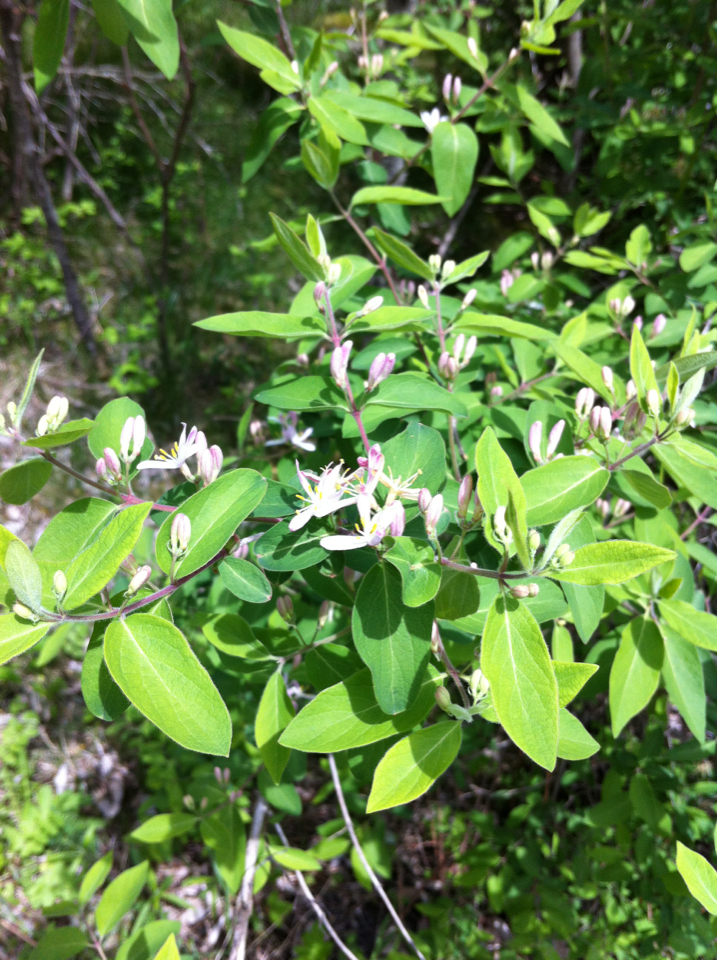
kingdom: Plantae
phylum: Tracheophyta
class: Magnoliopsida
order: Dipsacales
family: Caprifoliaceae
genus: Lonicera
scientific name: Lonicera morrowii
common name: Morrow's honeysuckle
